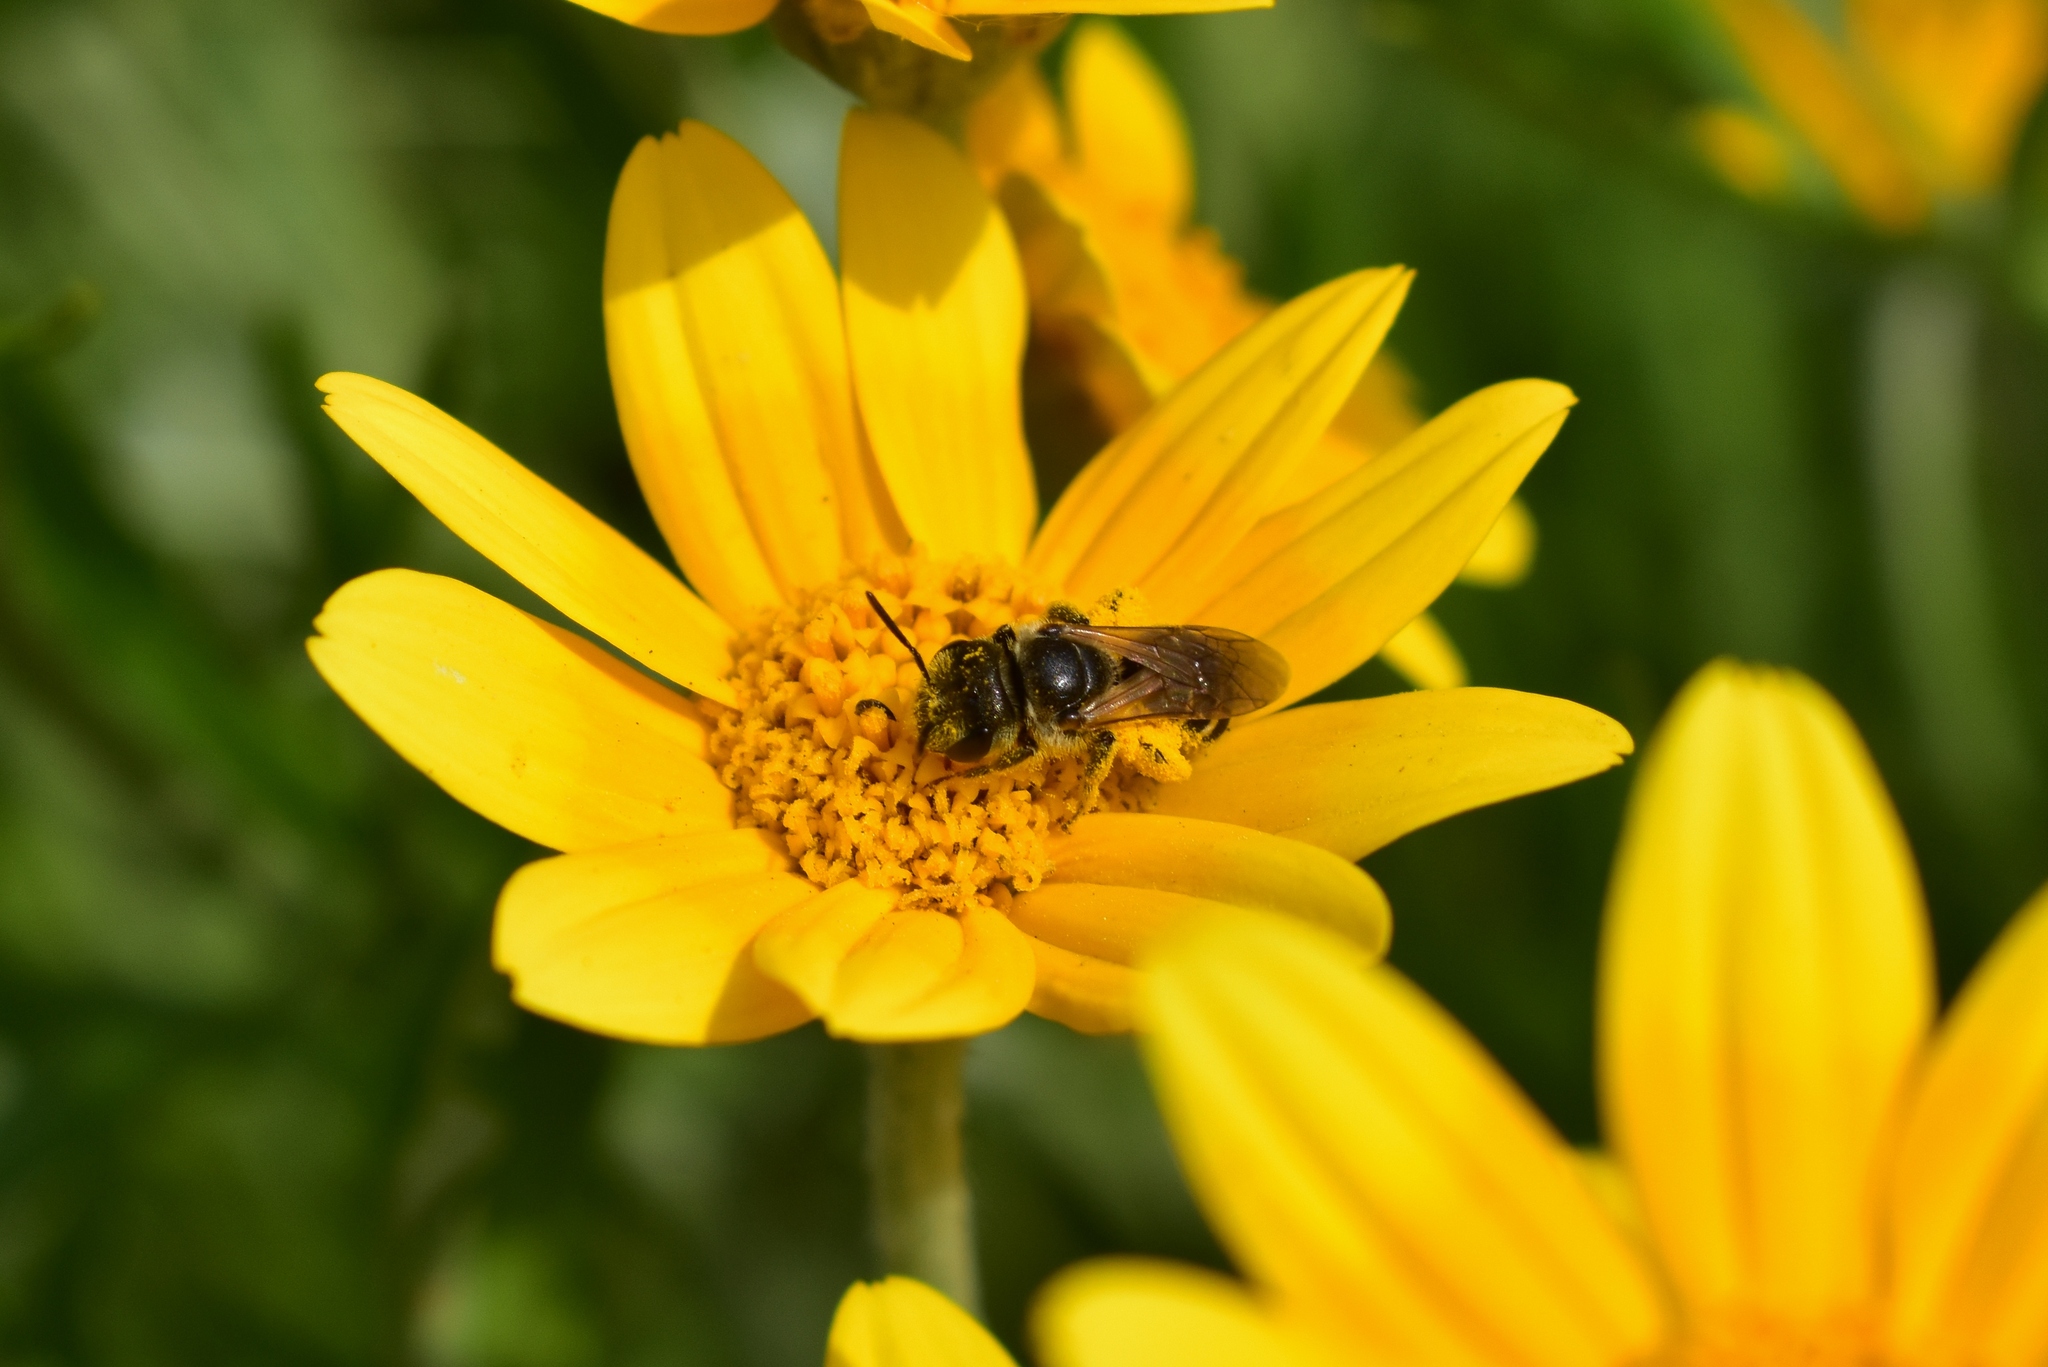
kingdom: Animalia
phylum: Arthropoda
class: Insecta
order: Hymenoptera
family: Halictidae
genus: Halictus
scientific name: Halictus ligatus
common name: Ligated furrow bee
